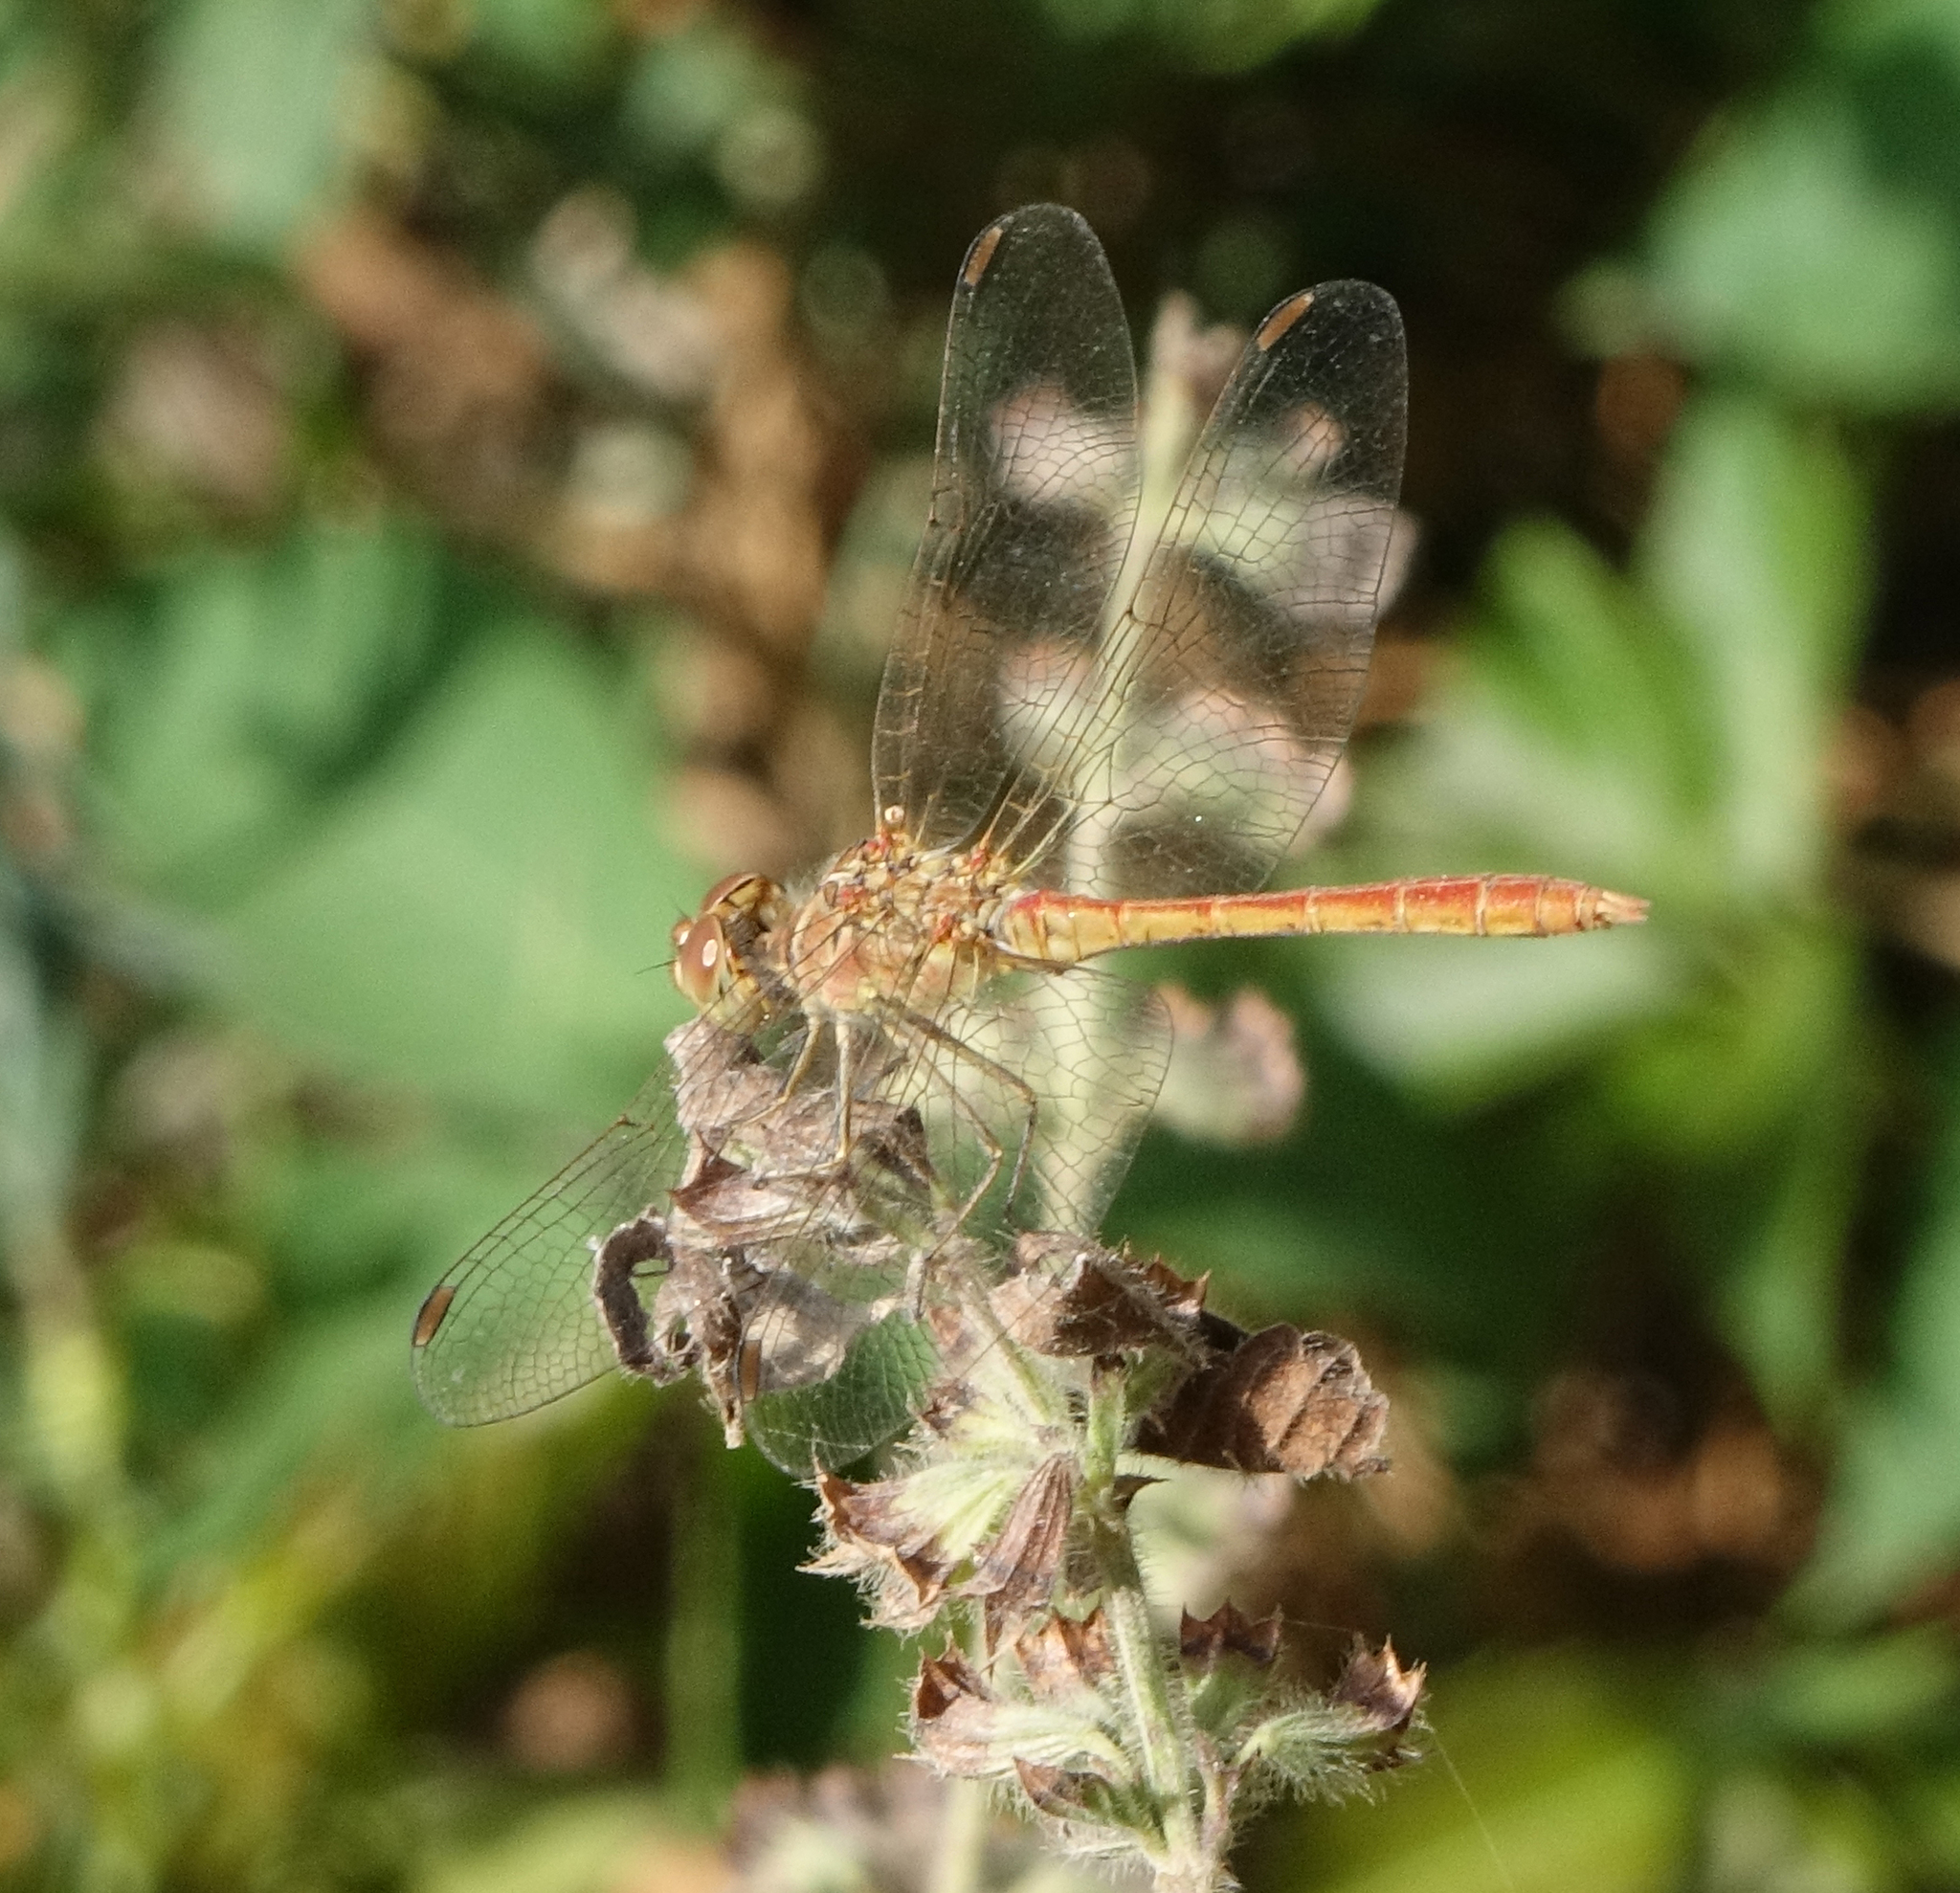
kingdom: Animalia
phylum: Arthropoda
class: Insecta
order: Odonata
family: Libellulidae
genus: Sympetrum
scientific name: Sympetrum meridionale
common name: Southern darter
